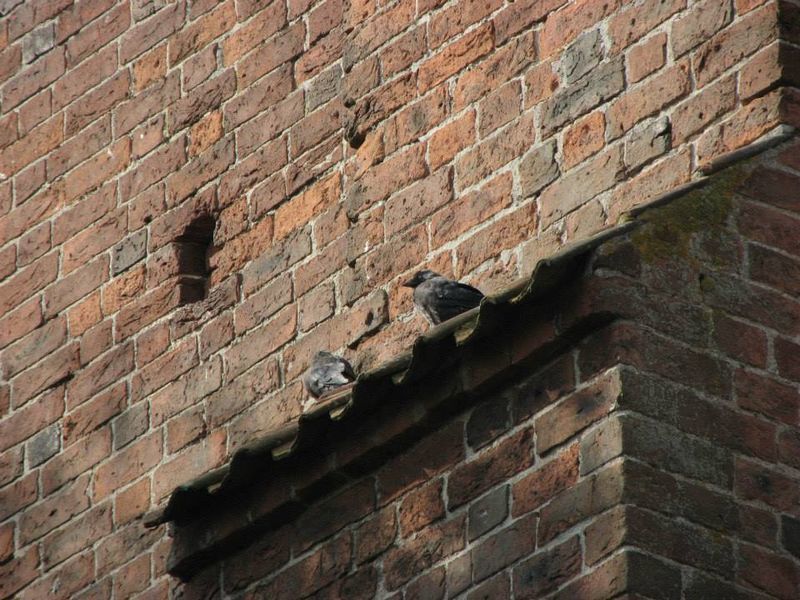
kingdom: Animalia
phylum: Chordata
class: Aves
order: Passeriformes
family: Corvidae
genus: Coloeus
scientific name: Coloeus monedula
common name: Western jackdaw
